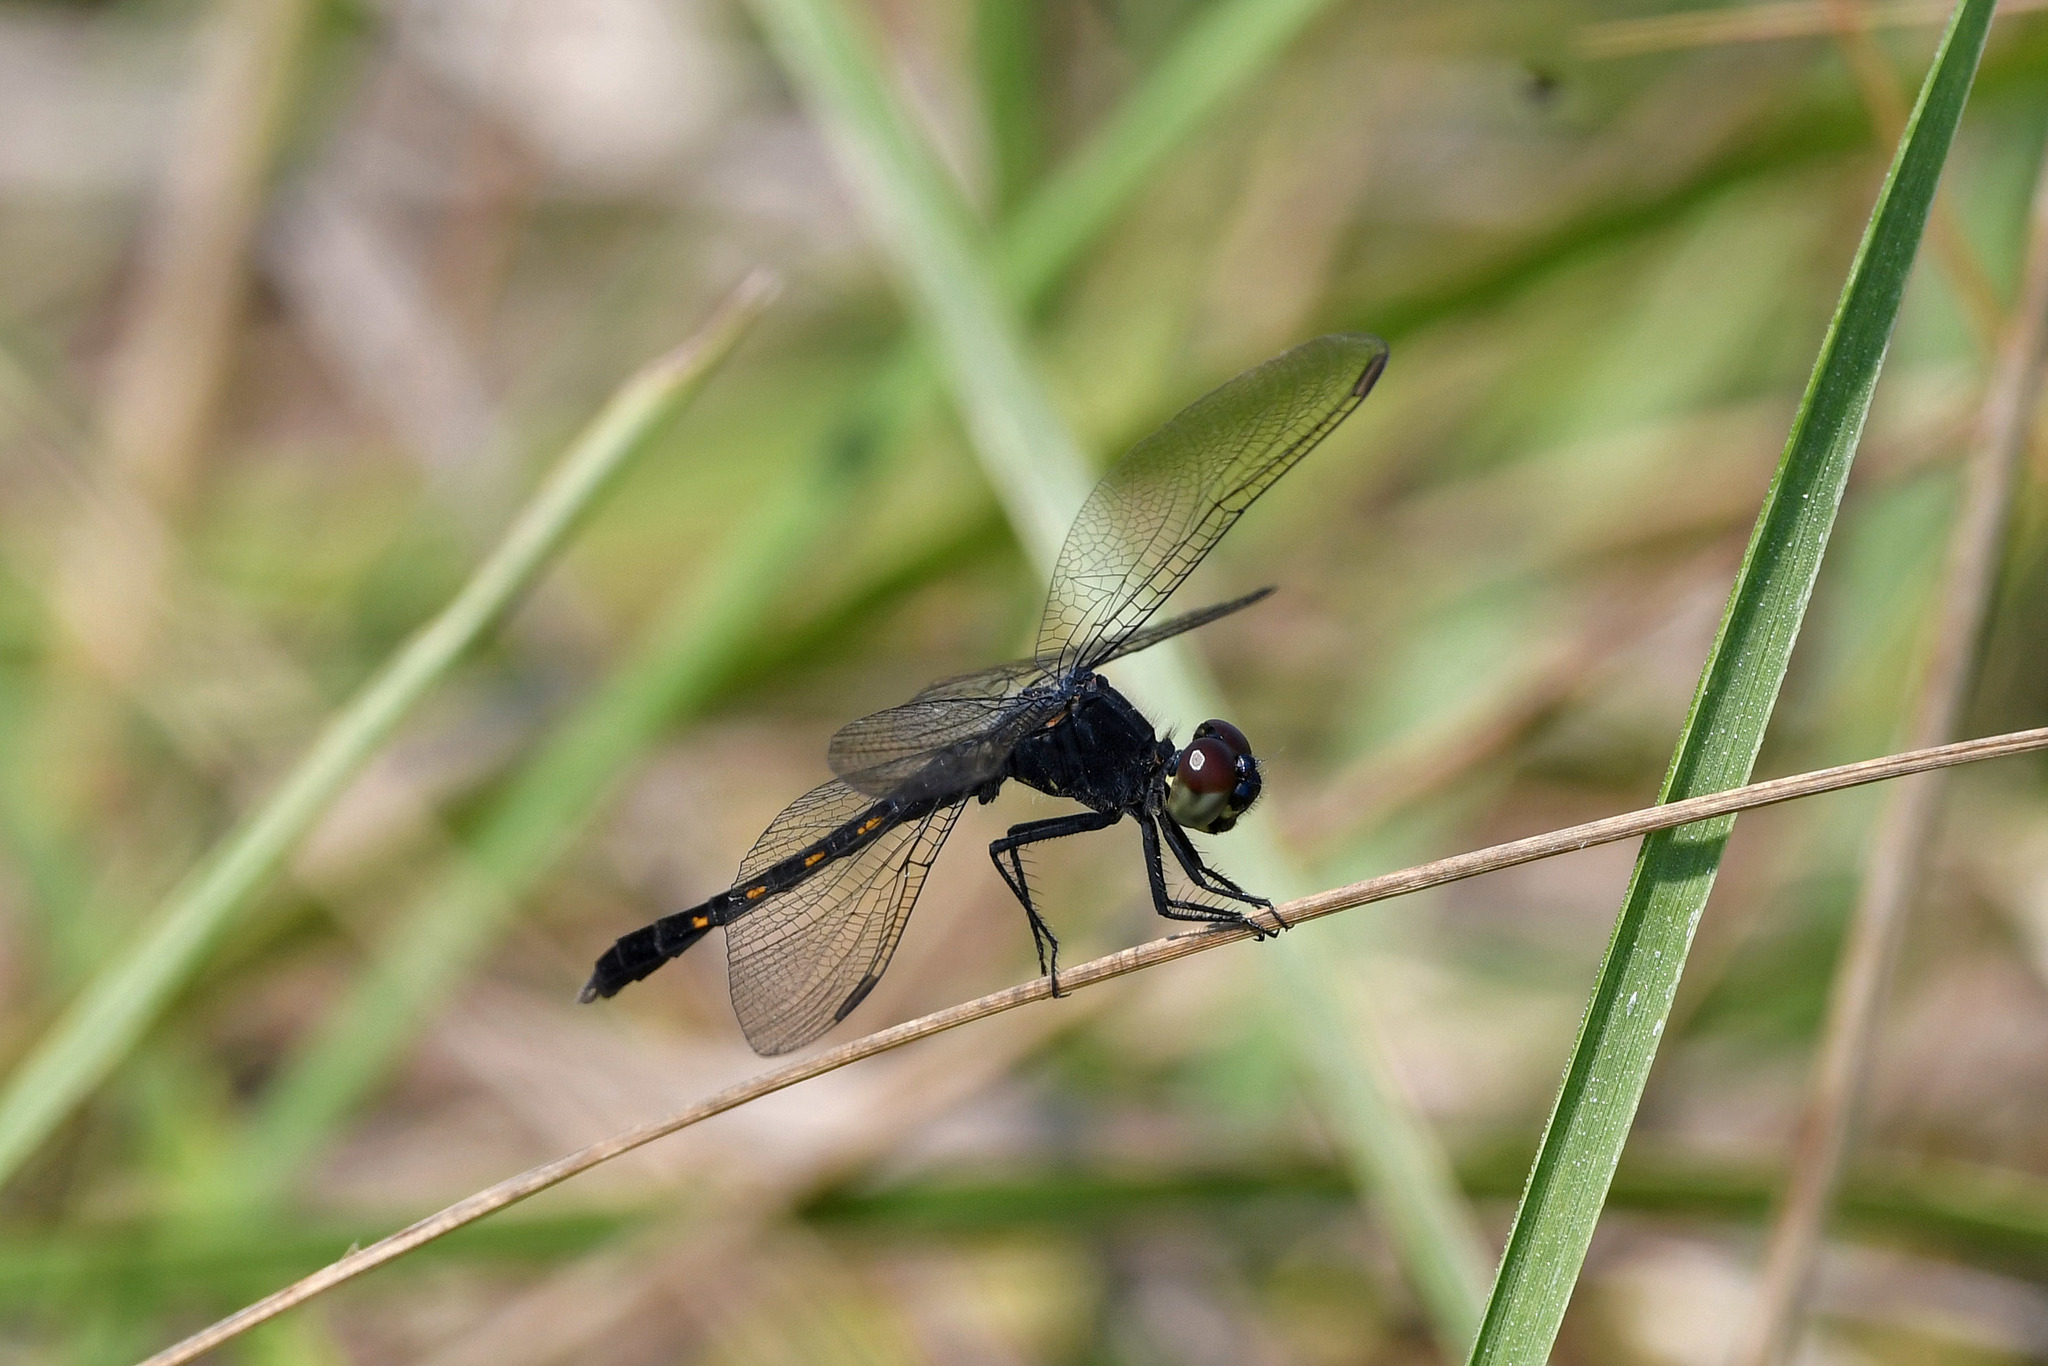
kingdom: Animalia
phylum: Arthropoda
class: Insecta
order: Odonata
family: Libellulidae
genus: Erythrodiplax
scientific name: Erythrodiplax berenice
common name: Seaside dragonlet
